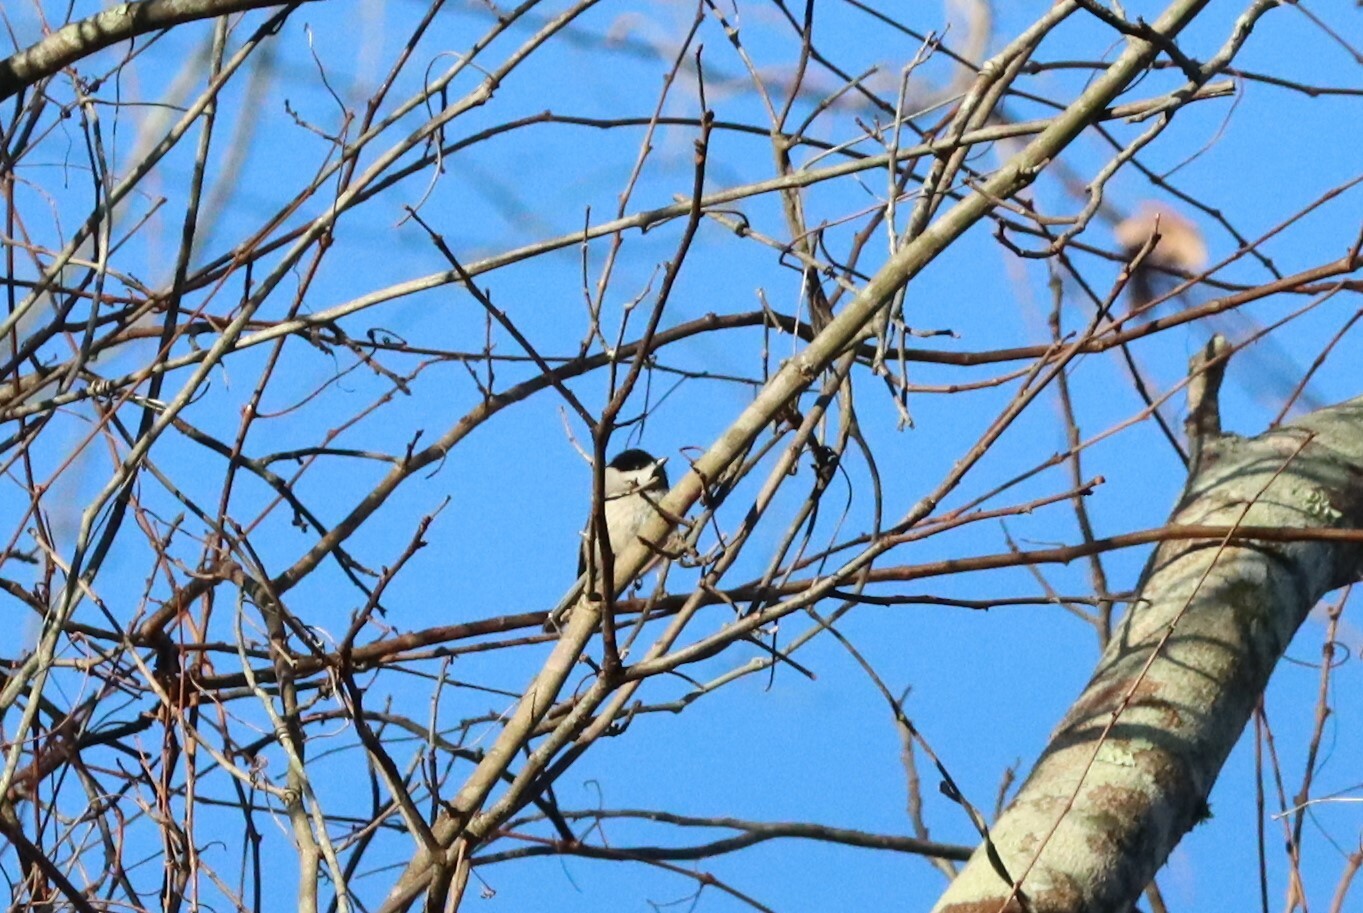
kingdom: Animalia
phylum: Chordata
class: Aves
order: Passeriformes
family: Paridae
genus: Poecile
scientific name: Poecile carolinensis
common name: Carolina chickadee
